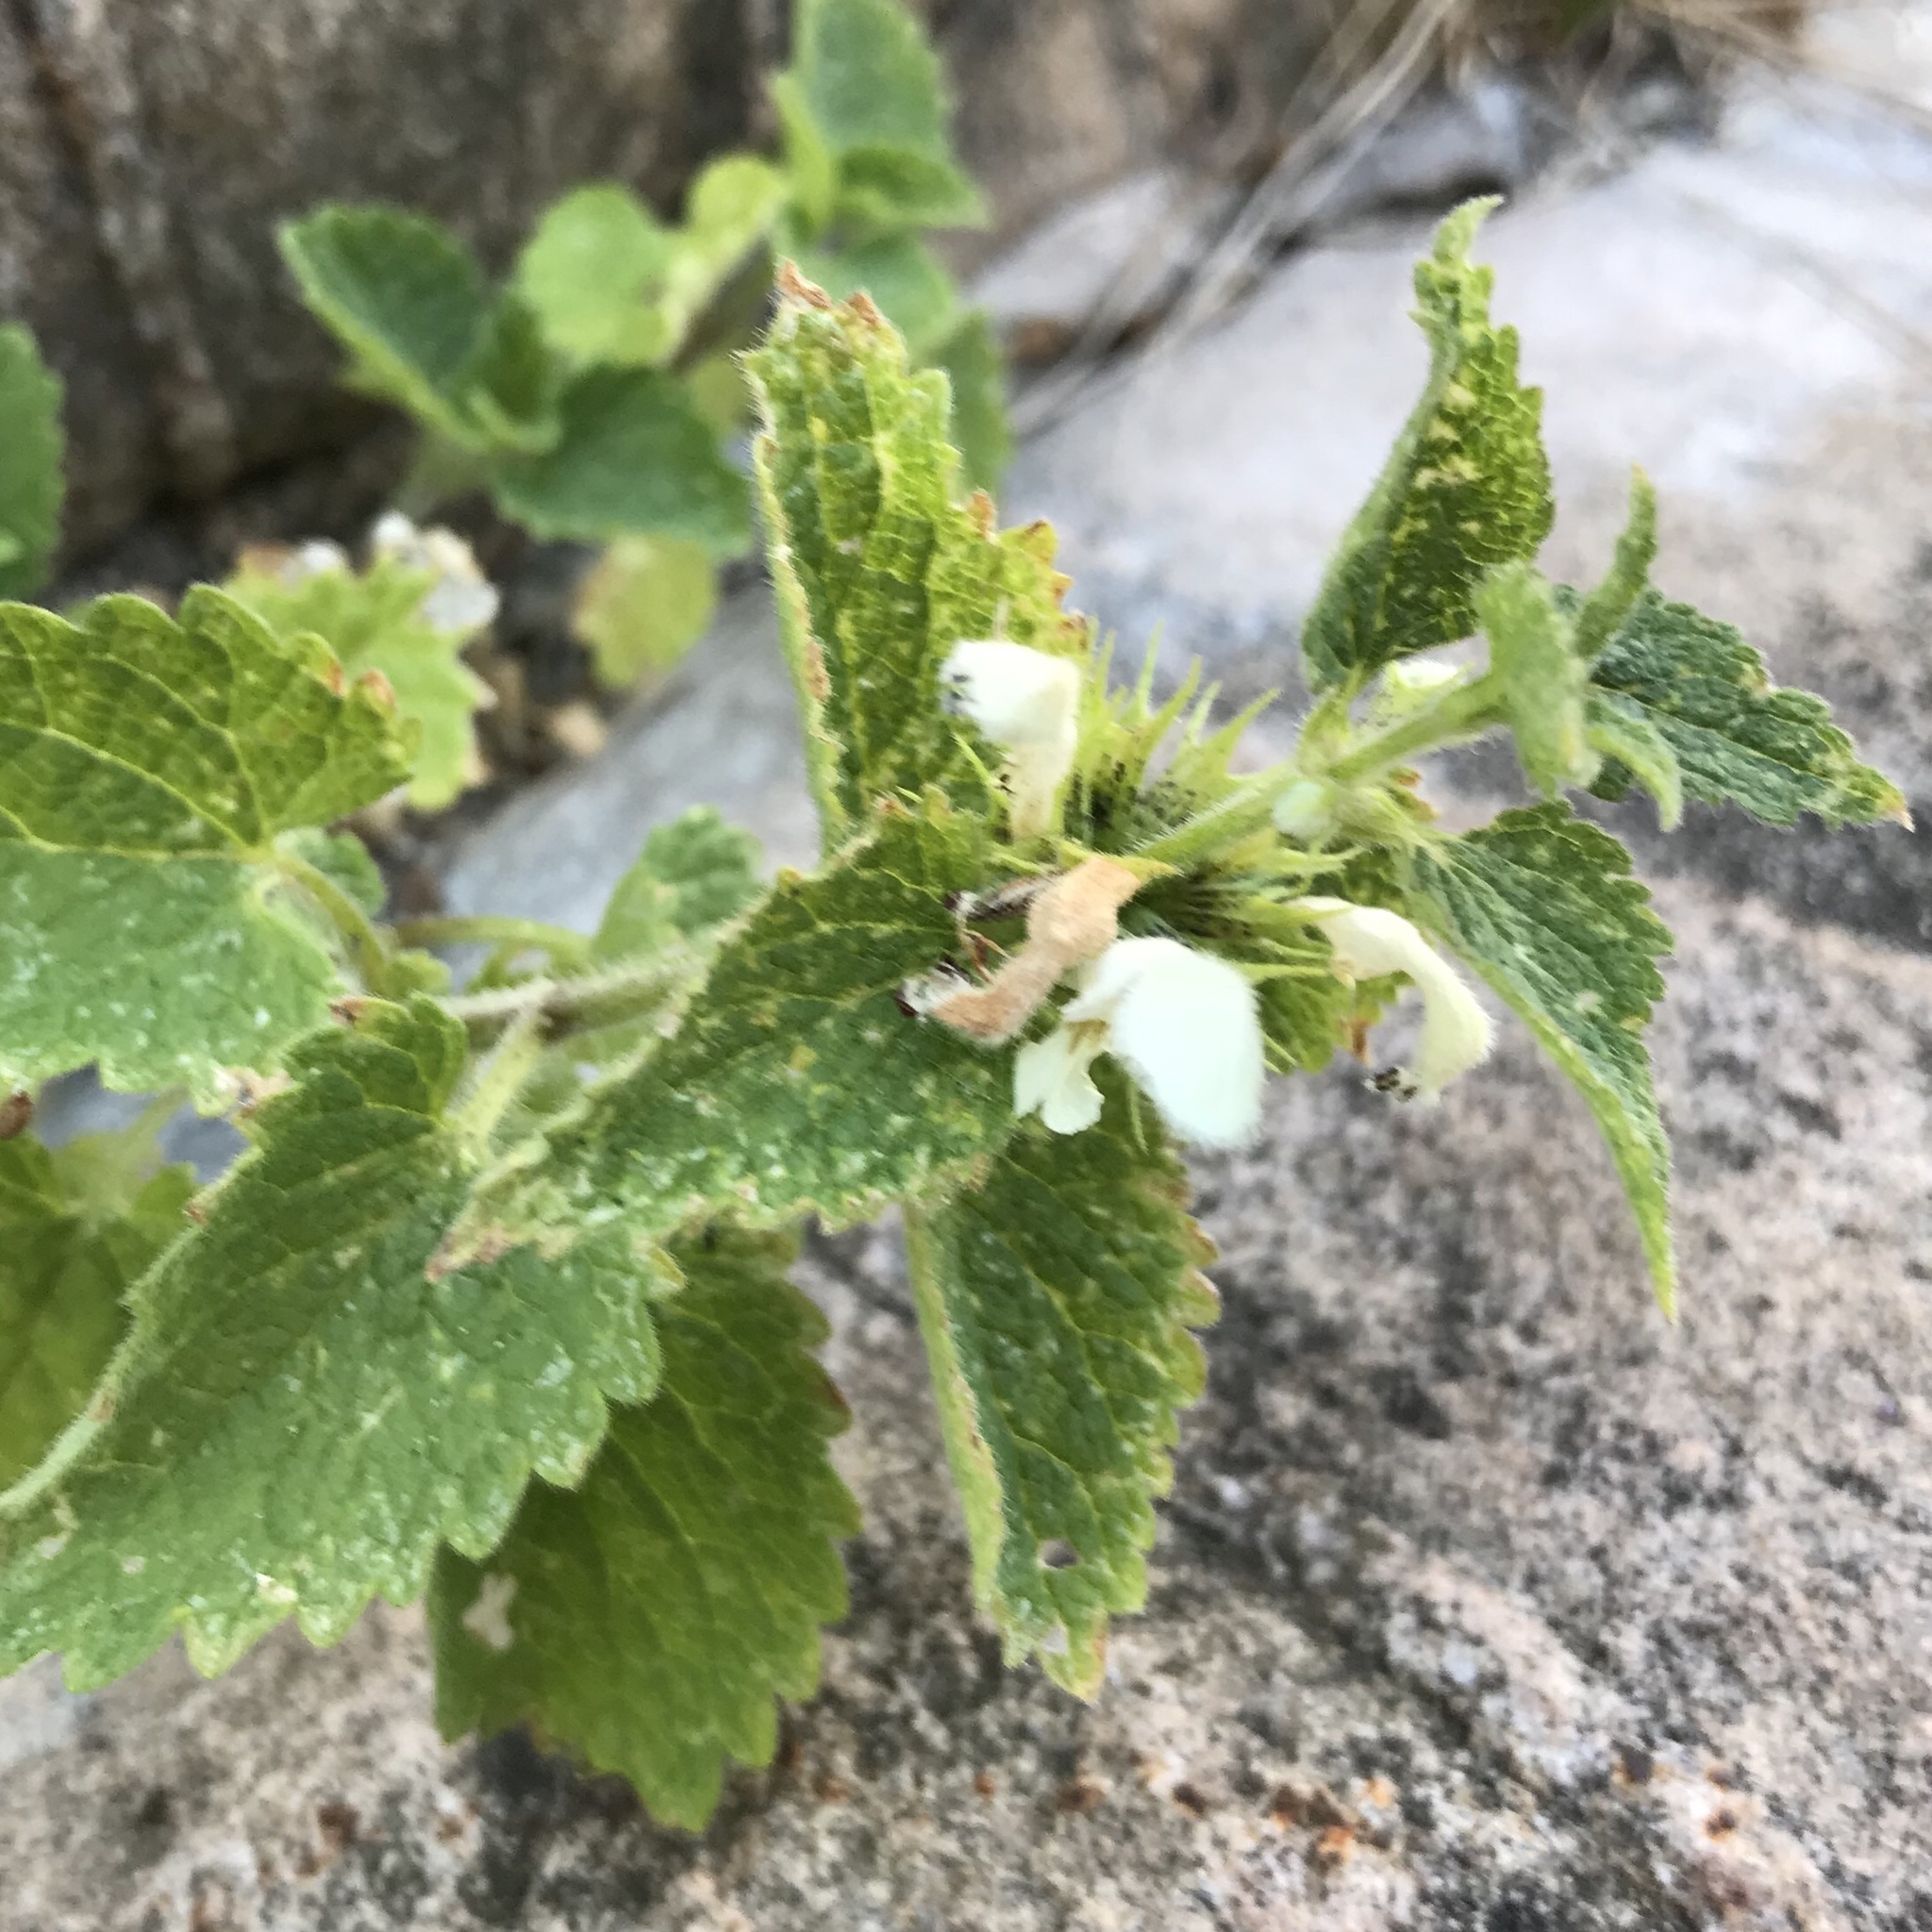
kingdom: Plantae
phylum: Tracheophyta
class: Magnoliopsida
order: Lamiales
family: Lamiaceae
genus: Lamium
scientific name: Lamium album
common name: White dead-nettle
